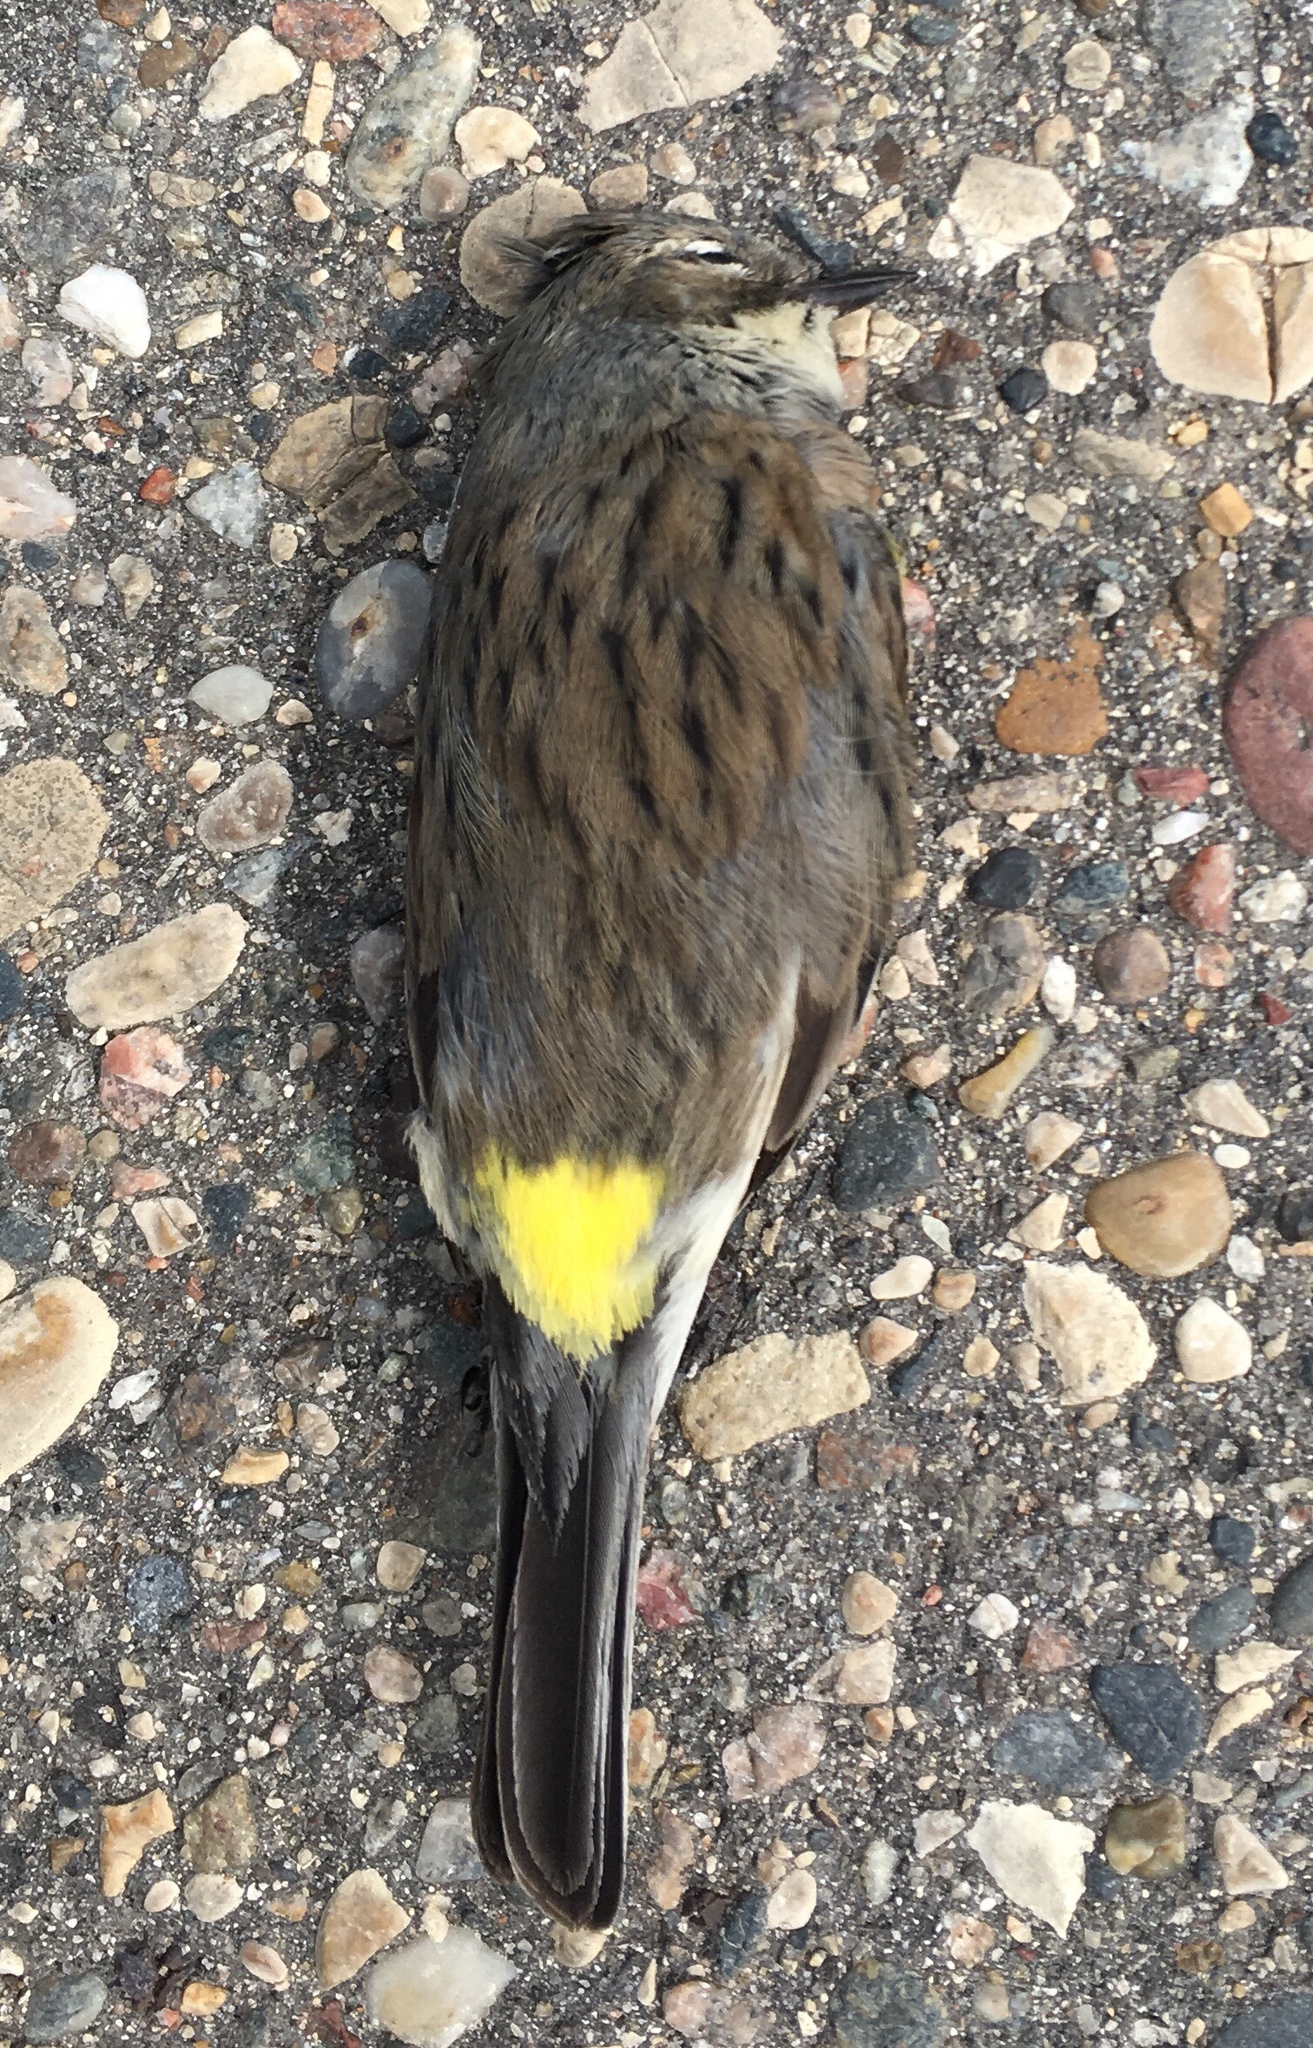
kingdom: Animalia
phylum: Chordata
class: Aves
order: Passeriformes
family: Parulidae
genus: Setophaga
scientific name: Setophaga coronata
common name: Myrtle warbler
